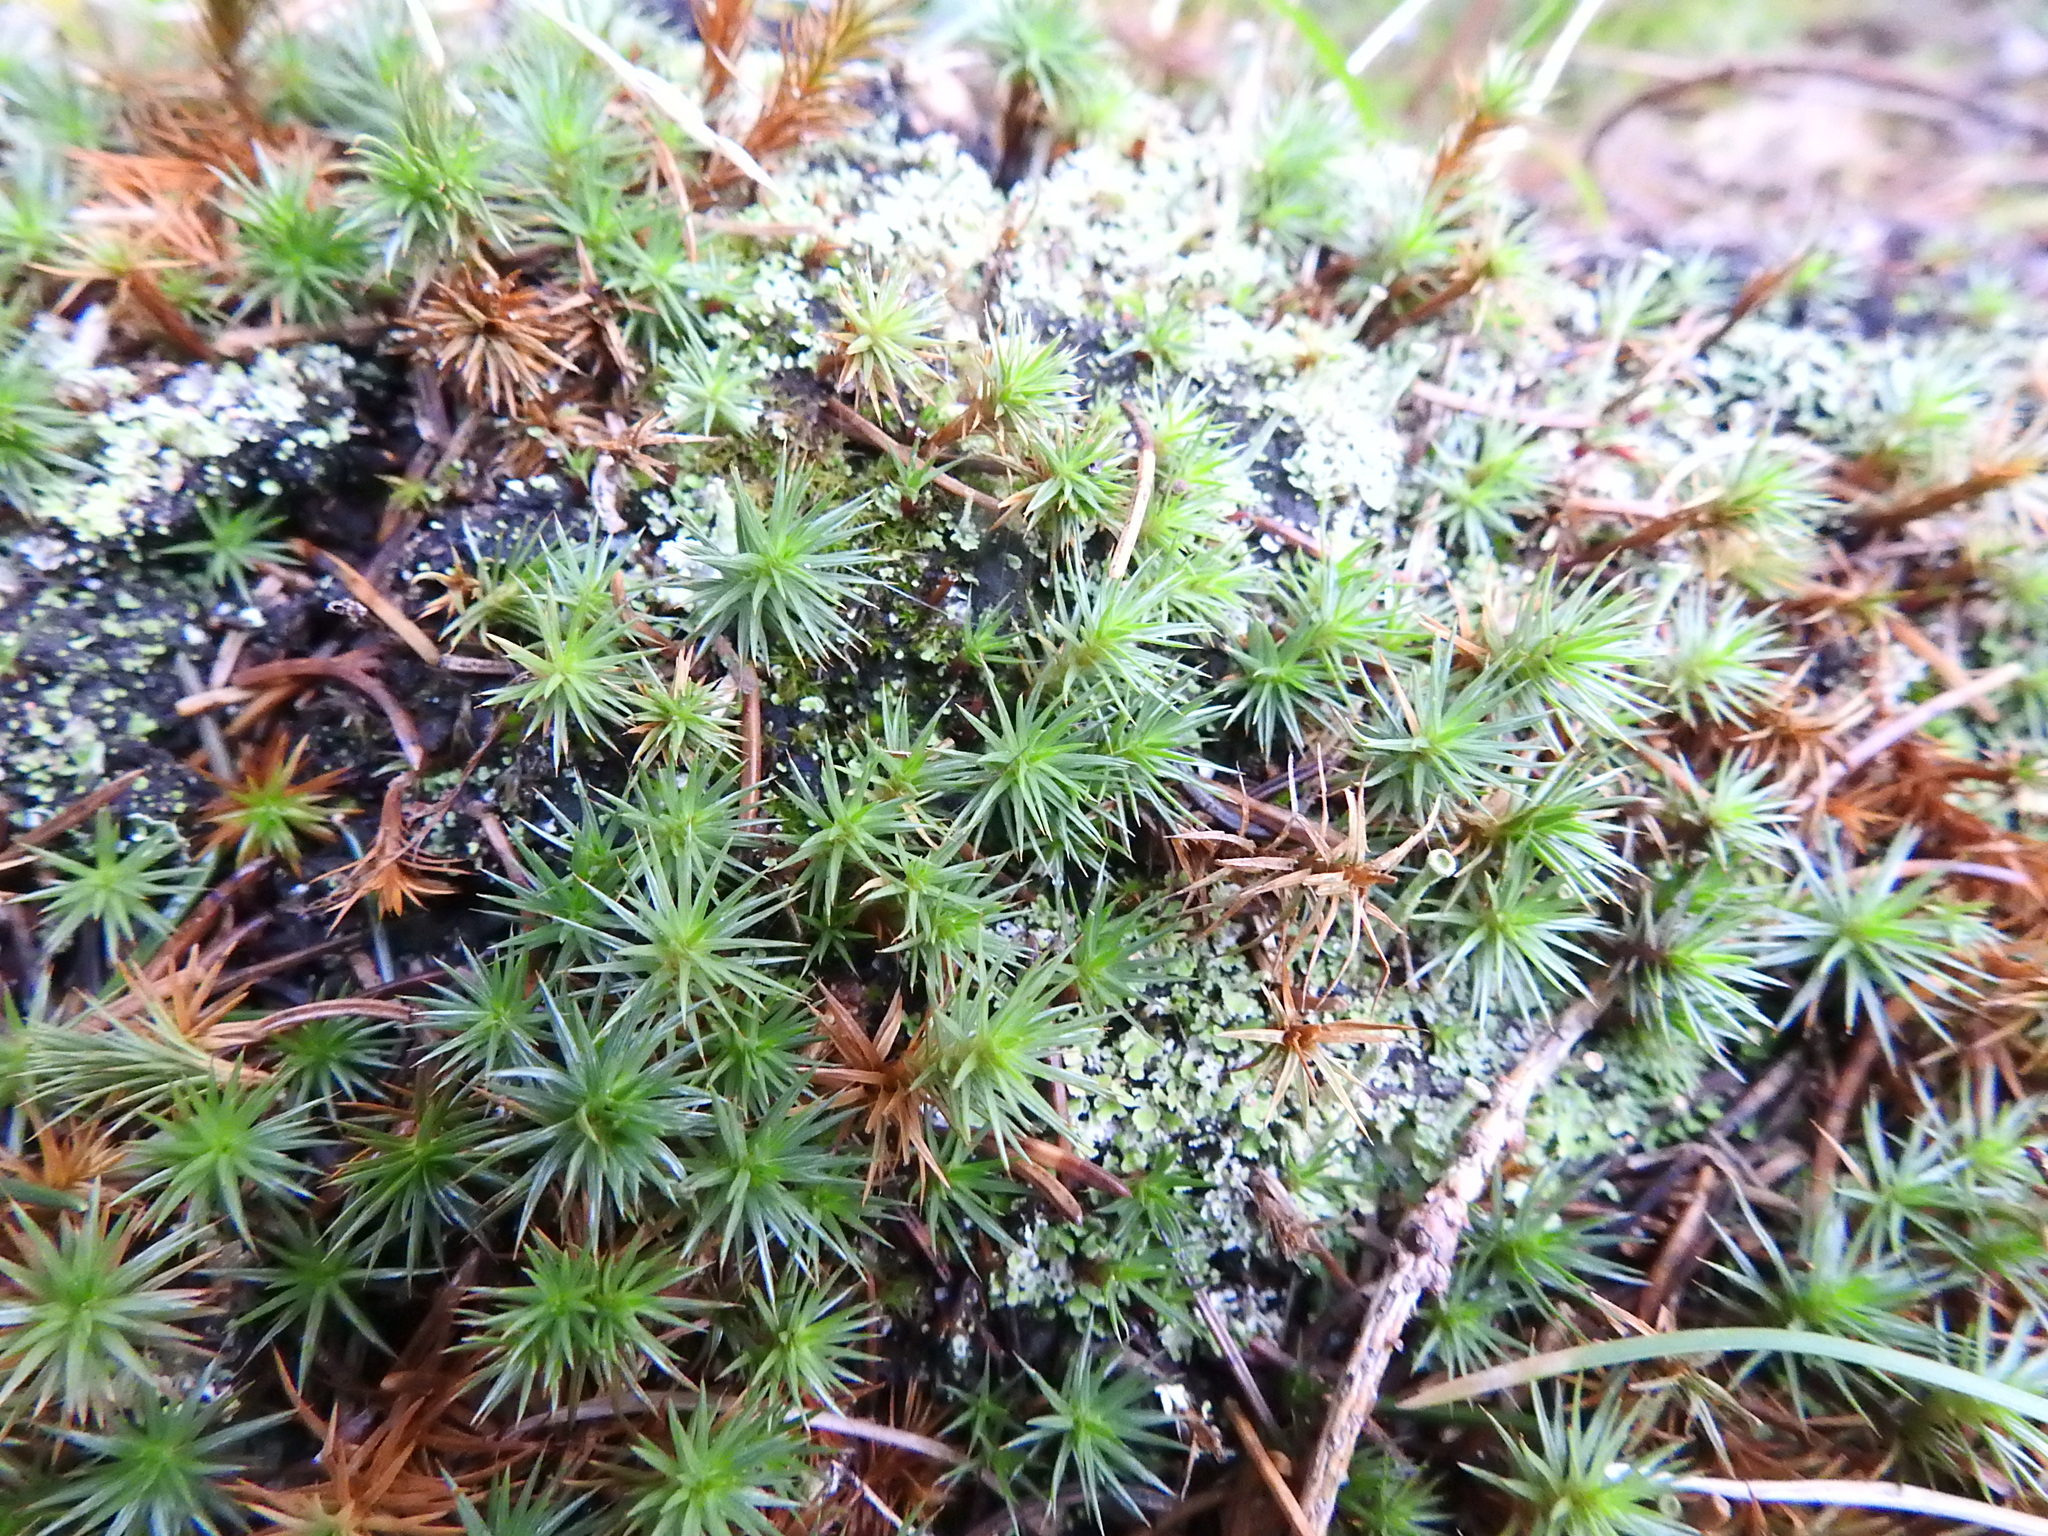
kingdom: Plantae
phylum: Bryophyta
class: Polytrichopsida
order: Polytrichales
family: Polytrichaceae
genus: Polytrichum
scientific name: Polytrichum juniperinum
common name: Juniper haircap moss
